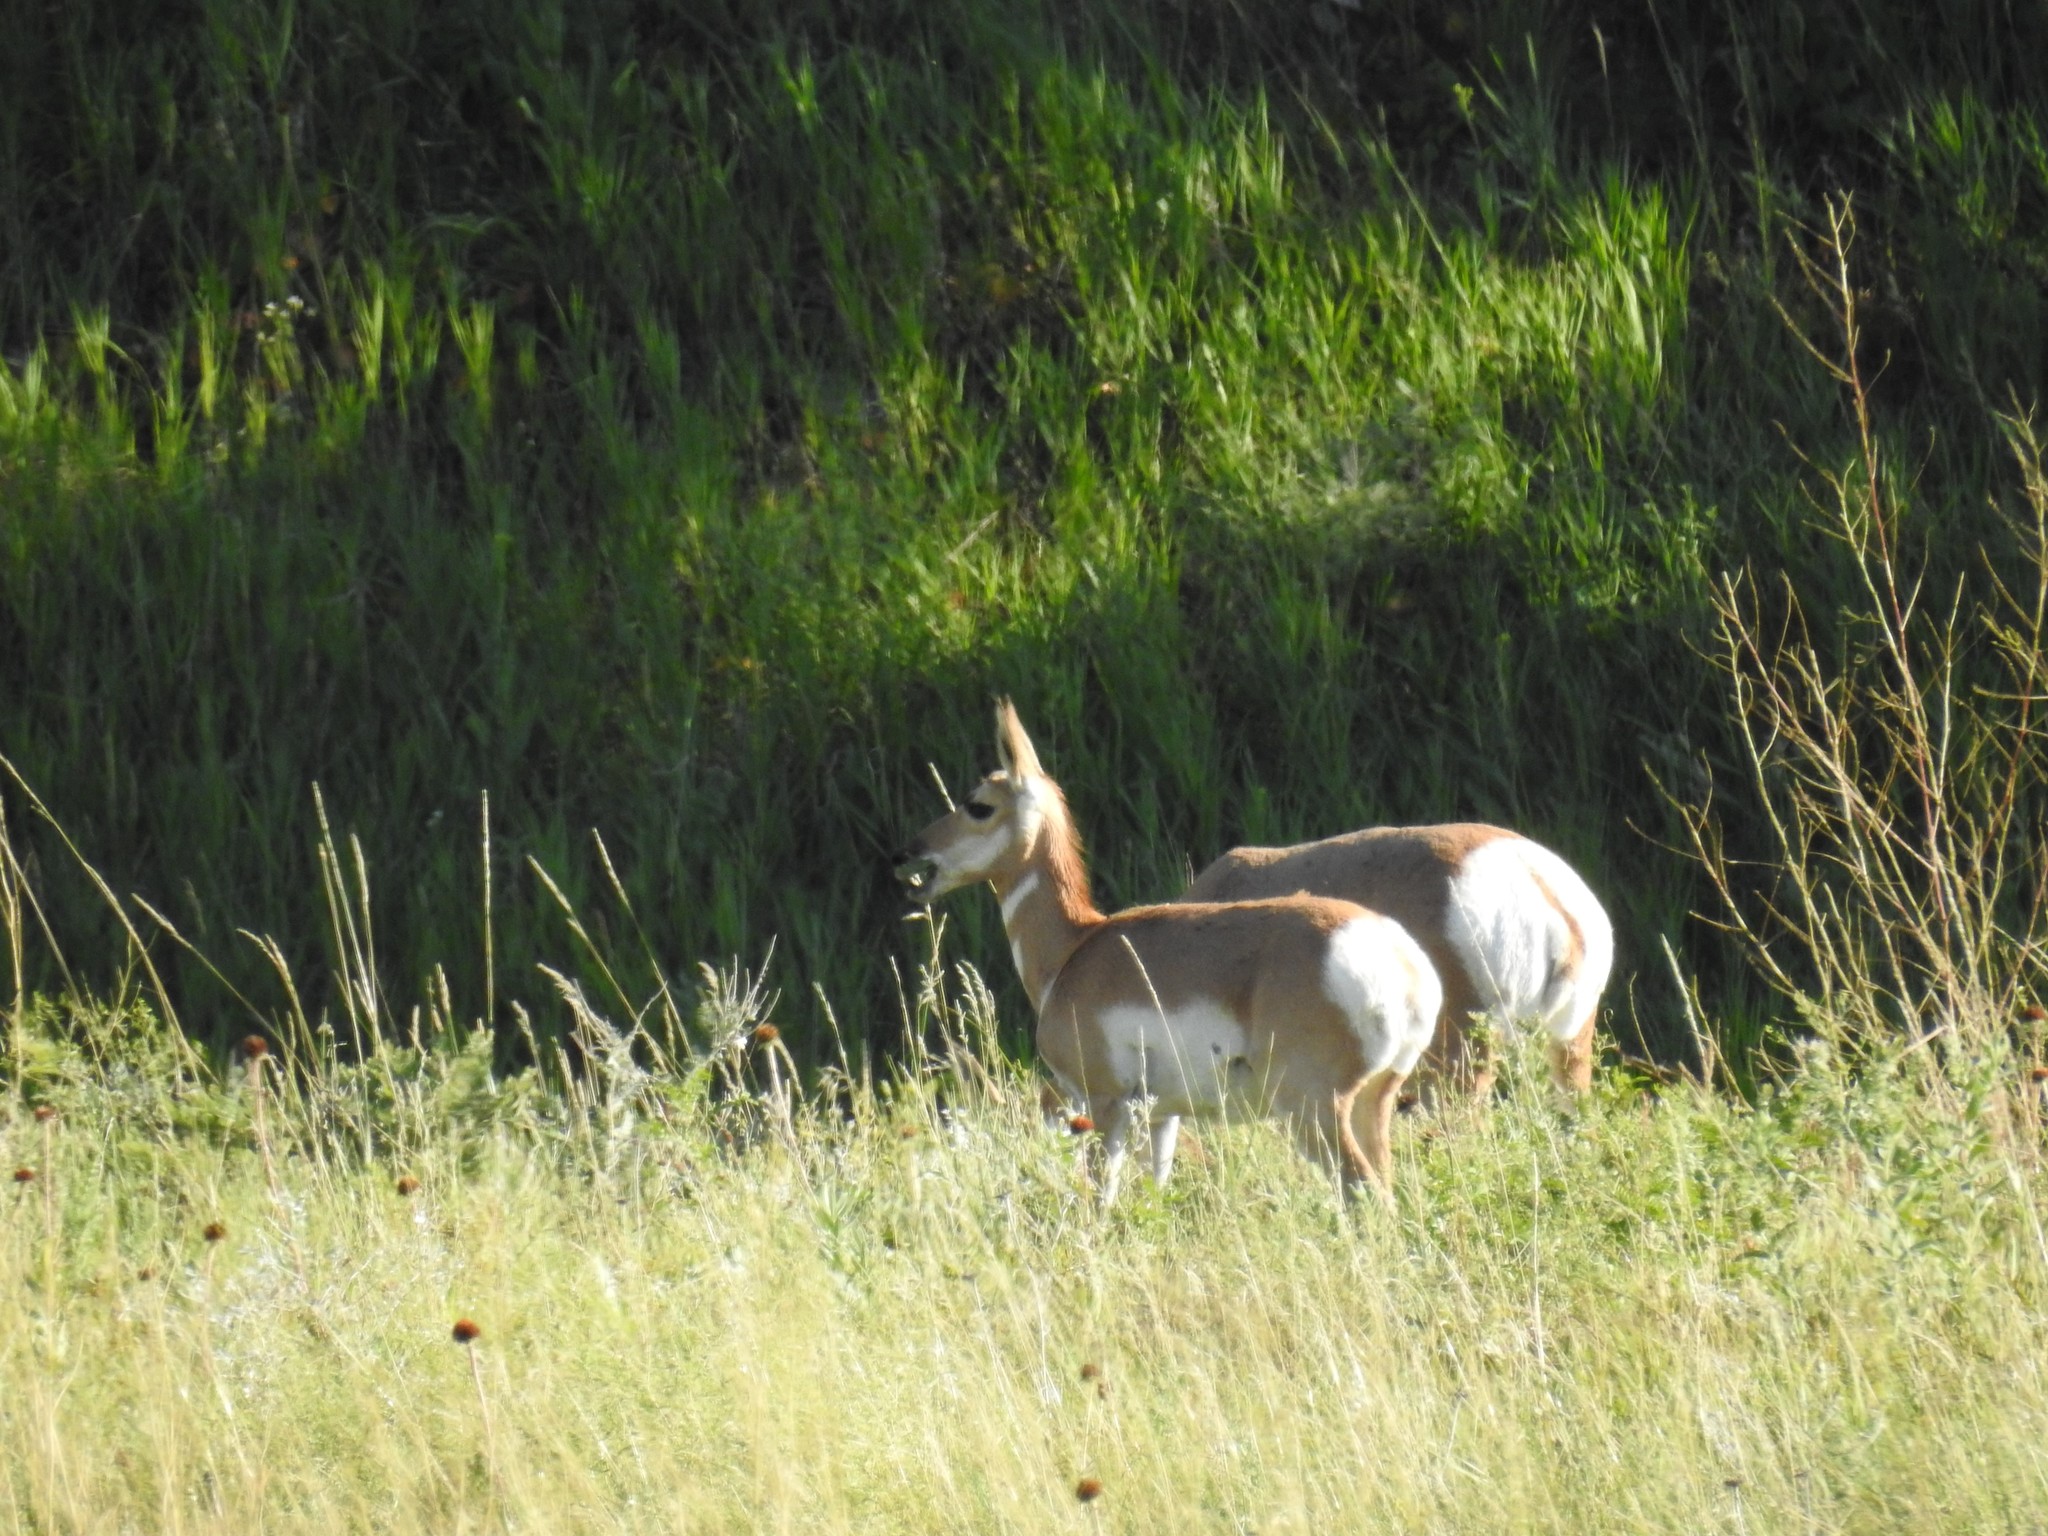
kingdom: Animalia
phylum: Chordata
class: Mammalia
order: Artiodactyla
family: Antilocapridae
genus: Antilocapra
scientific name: Antilocapra americana
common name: Pronghorn
